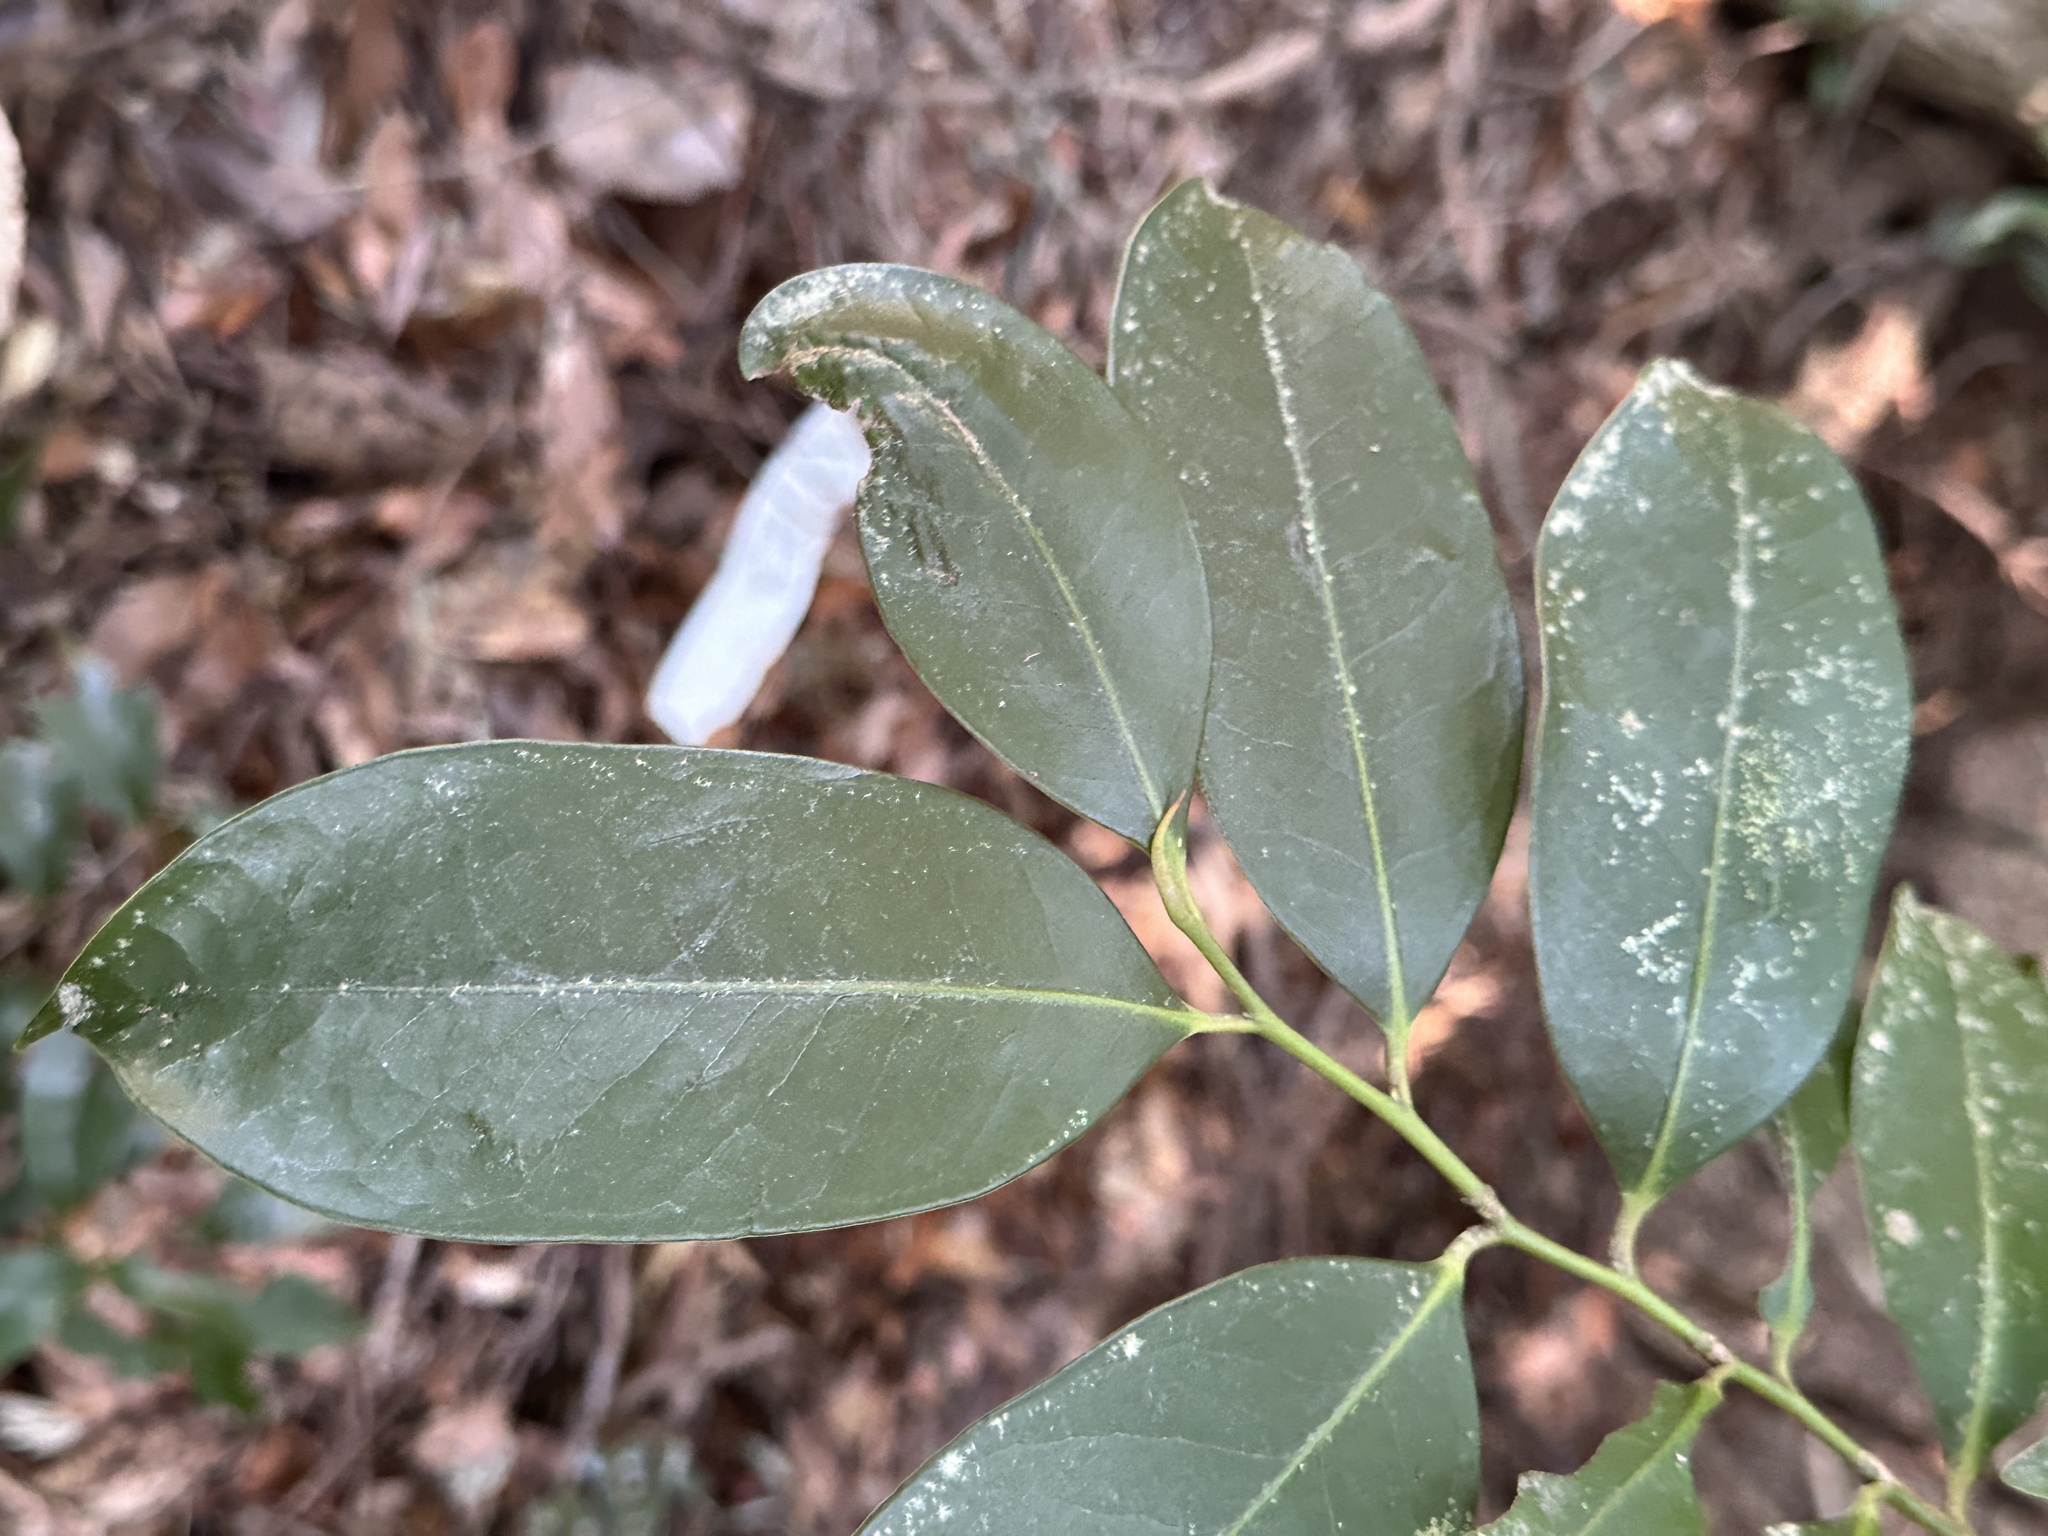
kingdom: Plantae
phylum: Tracheophyta
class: Magnoliopsida
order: Ericales
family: Pentaphylacaceae
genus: Cleyera
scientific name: Cleyera japonica
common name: Sakaki
